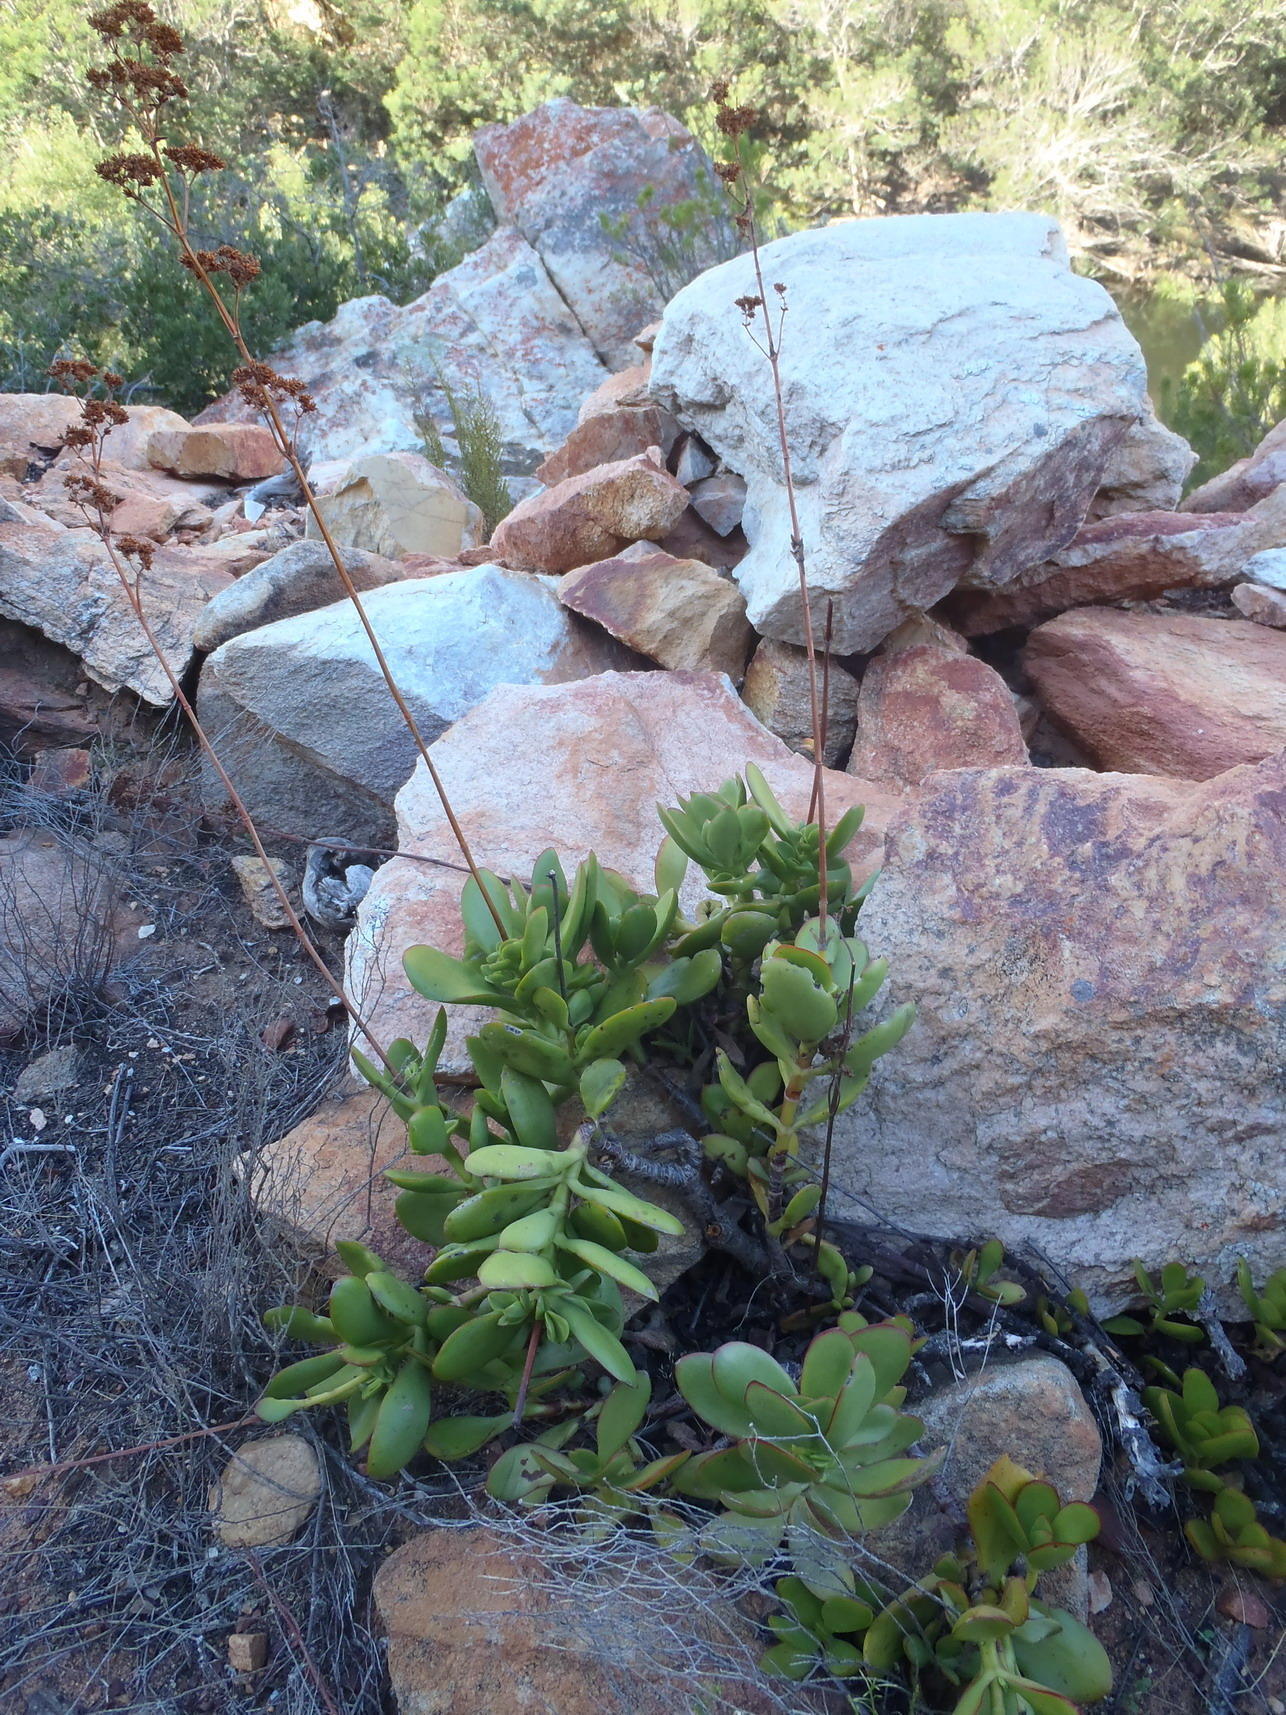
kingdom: Plantae
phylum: Tracheophyta
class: Magnoliopsida
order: Saxifragales
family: Crassulaceae
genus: Crassula
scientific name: Crassula cultrata
